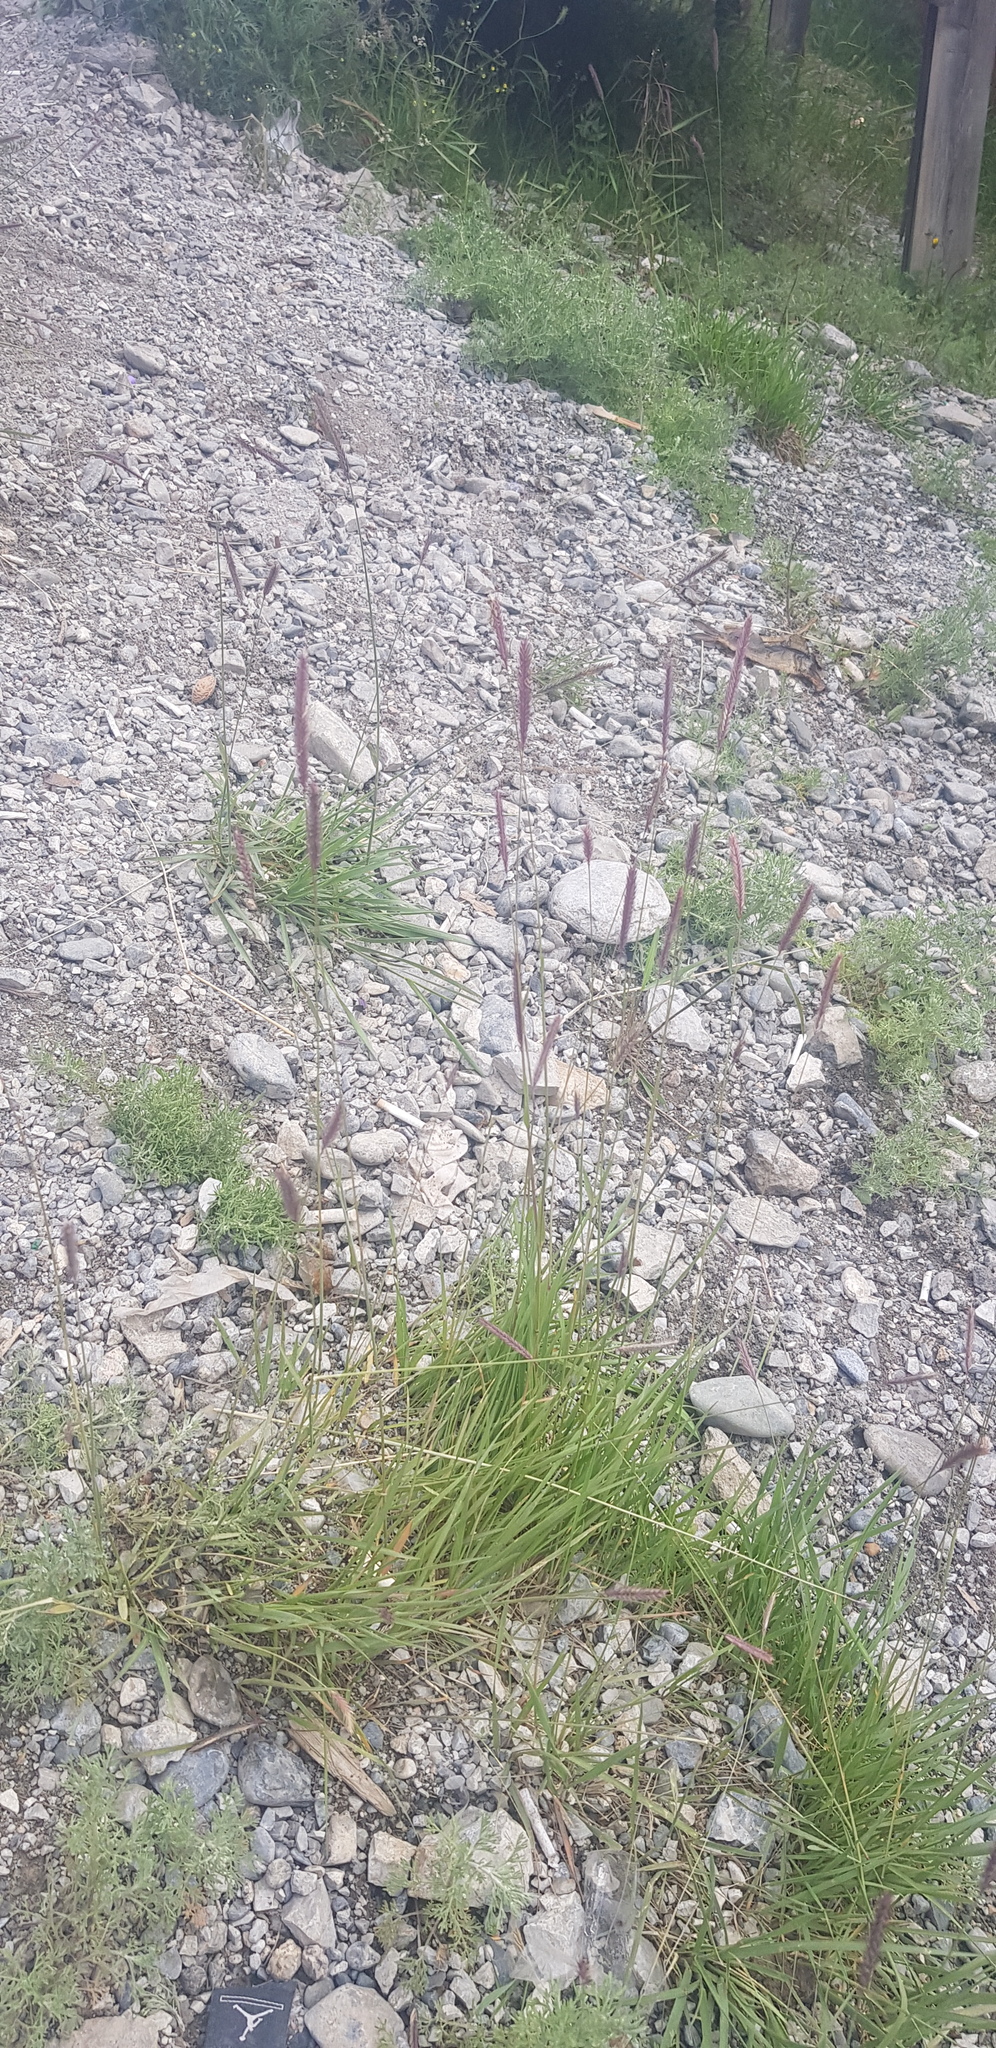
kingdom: Plantae
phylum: Tracheophyta
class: Liliopsida
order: Poales
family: Poaceae
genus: Hordeum
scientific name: Hordeum brevisubulatum
